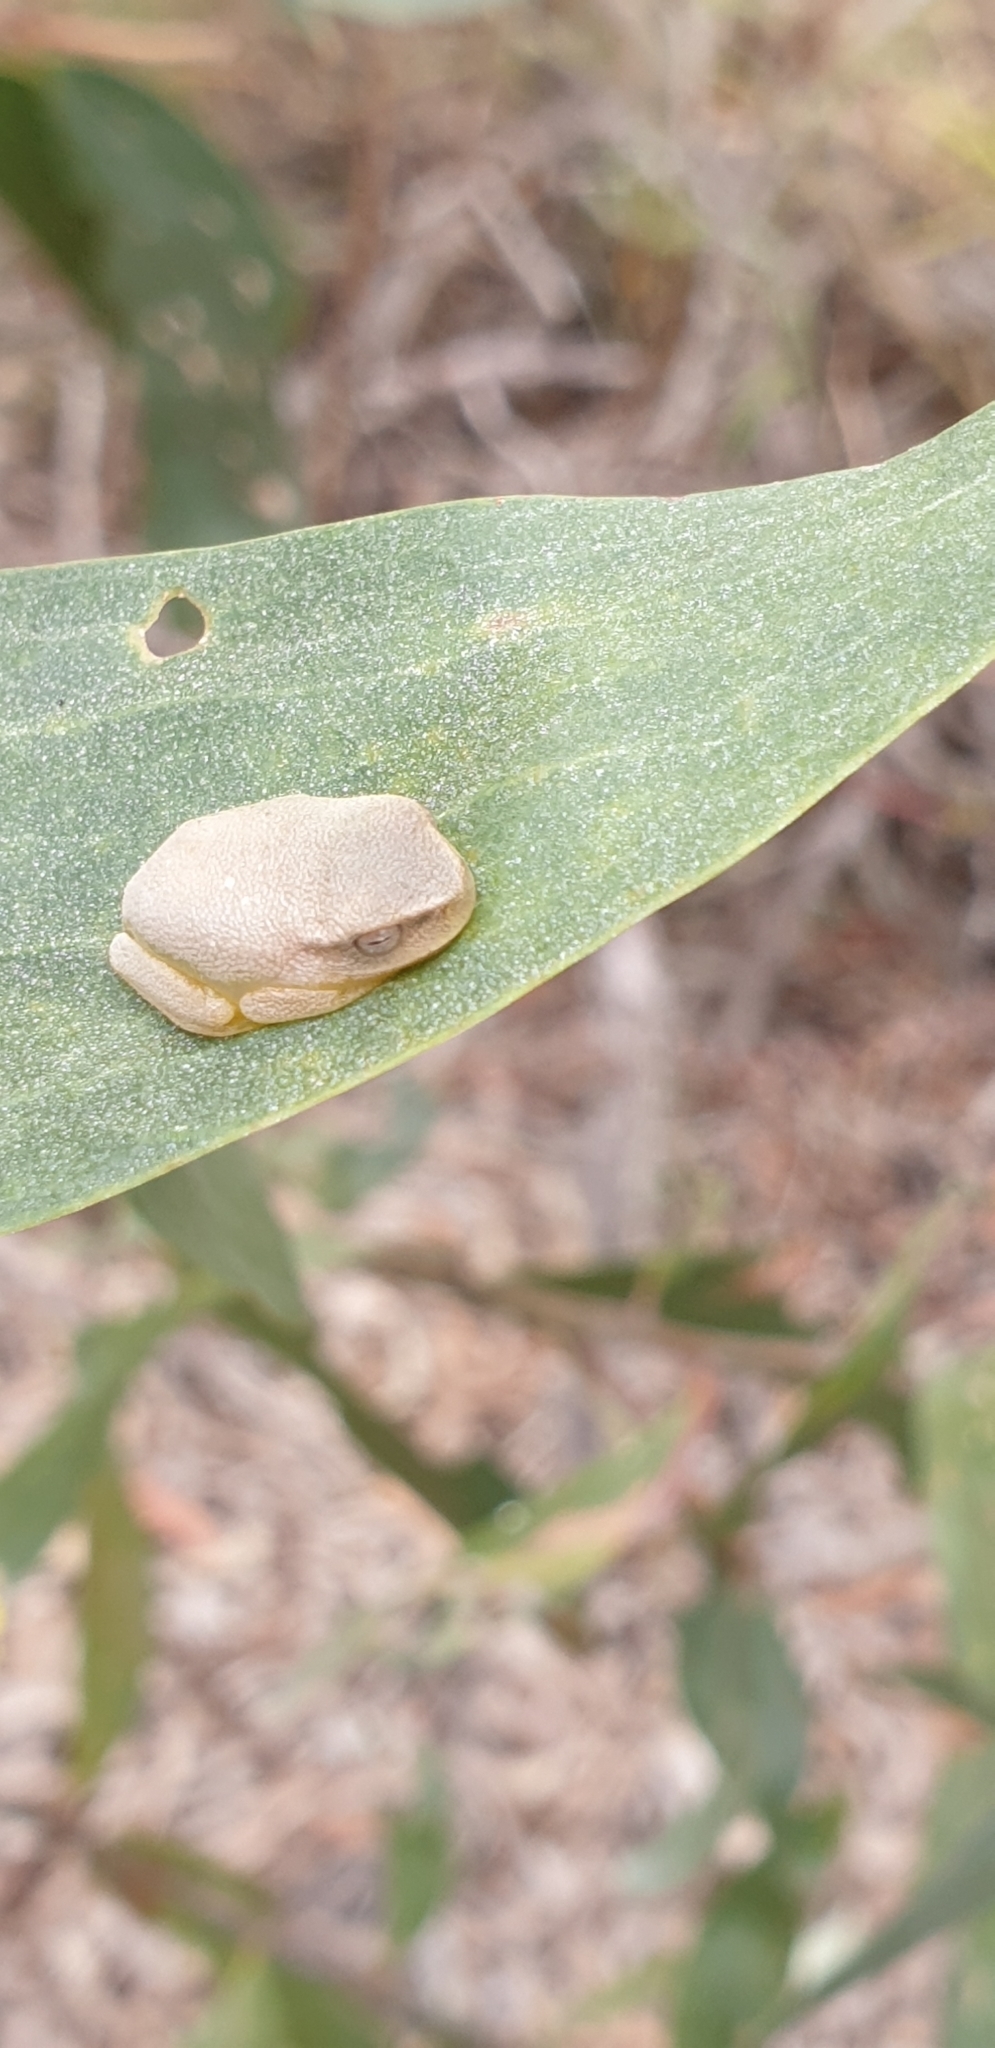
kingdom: Animalia
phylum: Chordata
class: Amphibia
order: Anura
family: Pelodryadidae
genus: Ranoidea
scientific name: Ranoidea gracilenta
